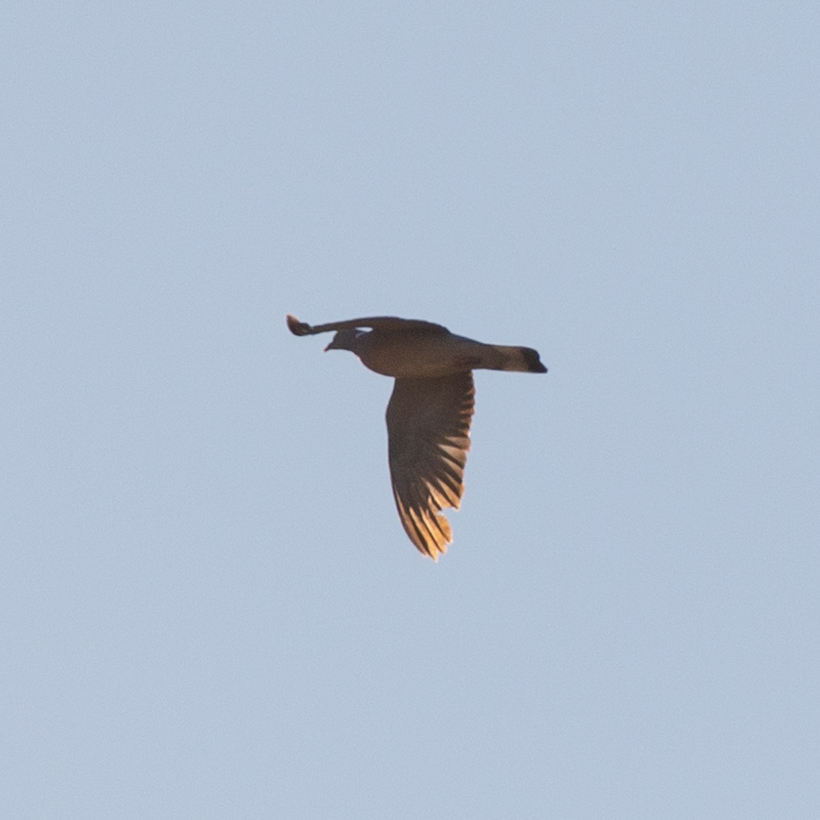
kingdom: Animalia
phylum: Chordata
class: Aves
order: Columbiformes
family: Columbidae
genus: Columba
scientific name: Columba palumbus
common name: Common wood pigeon
